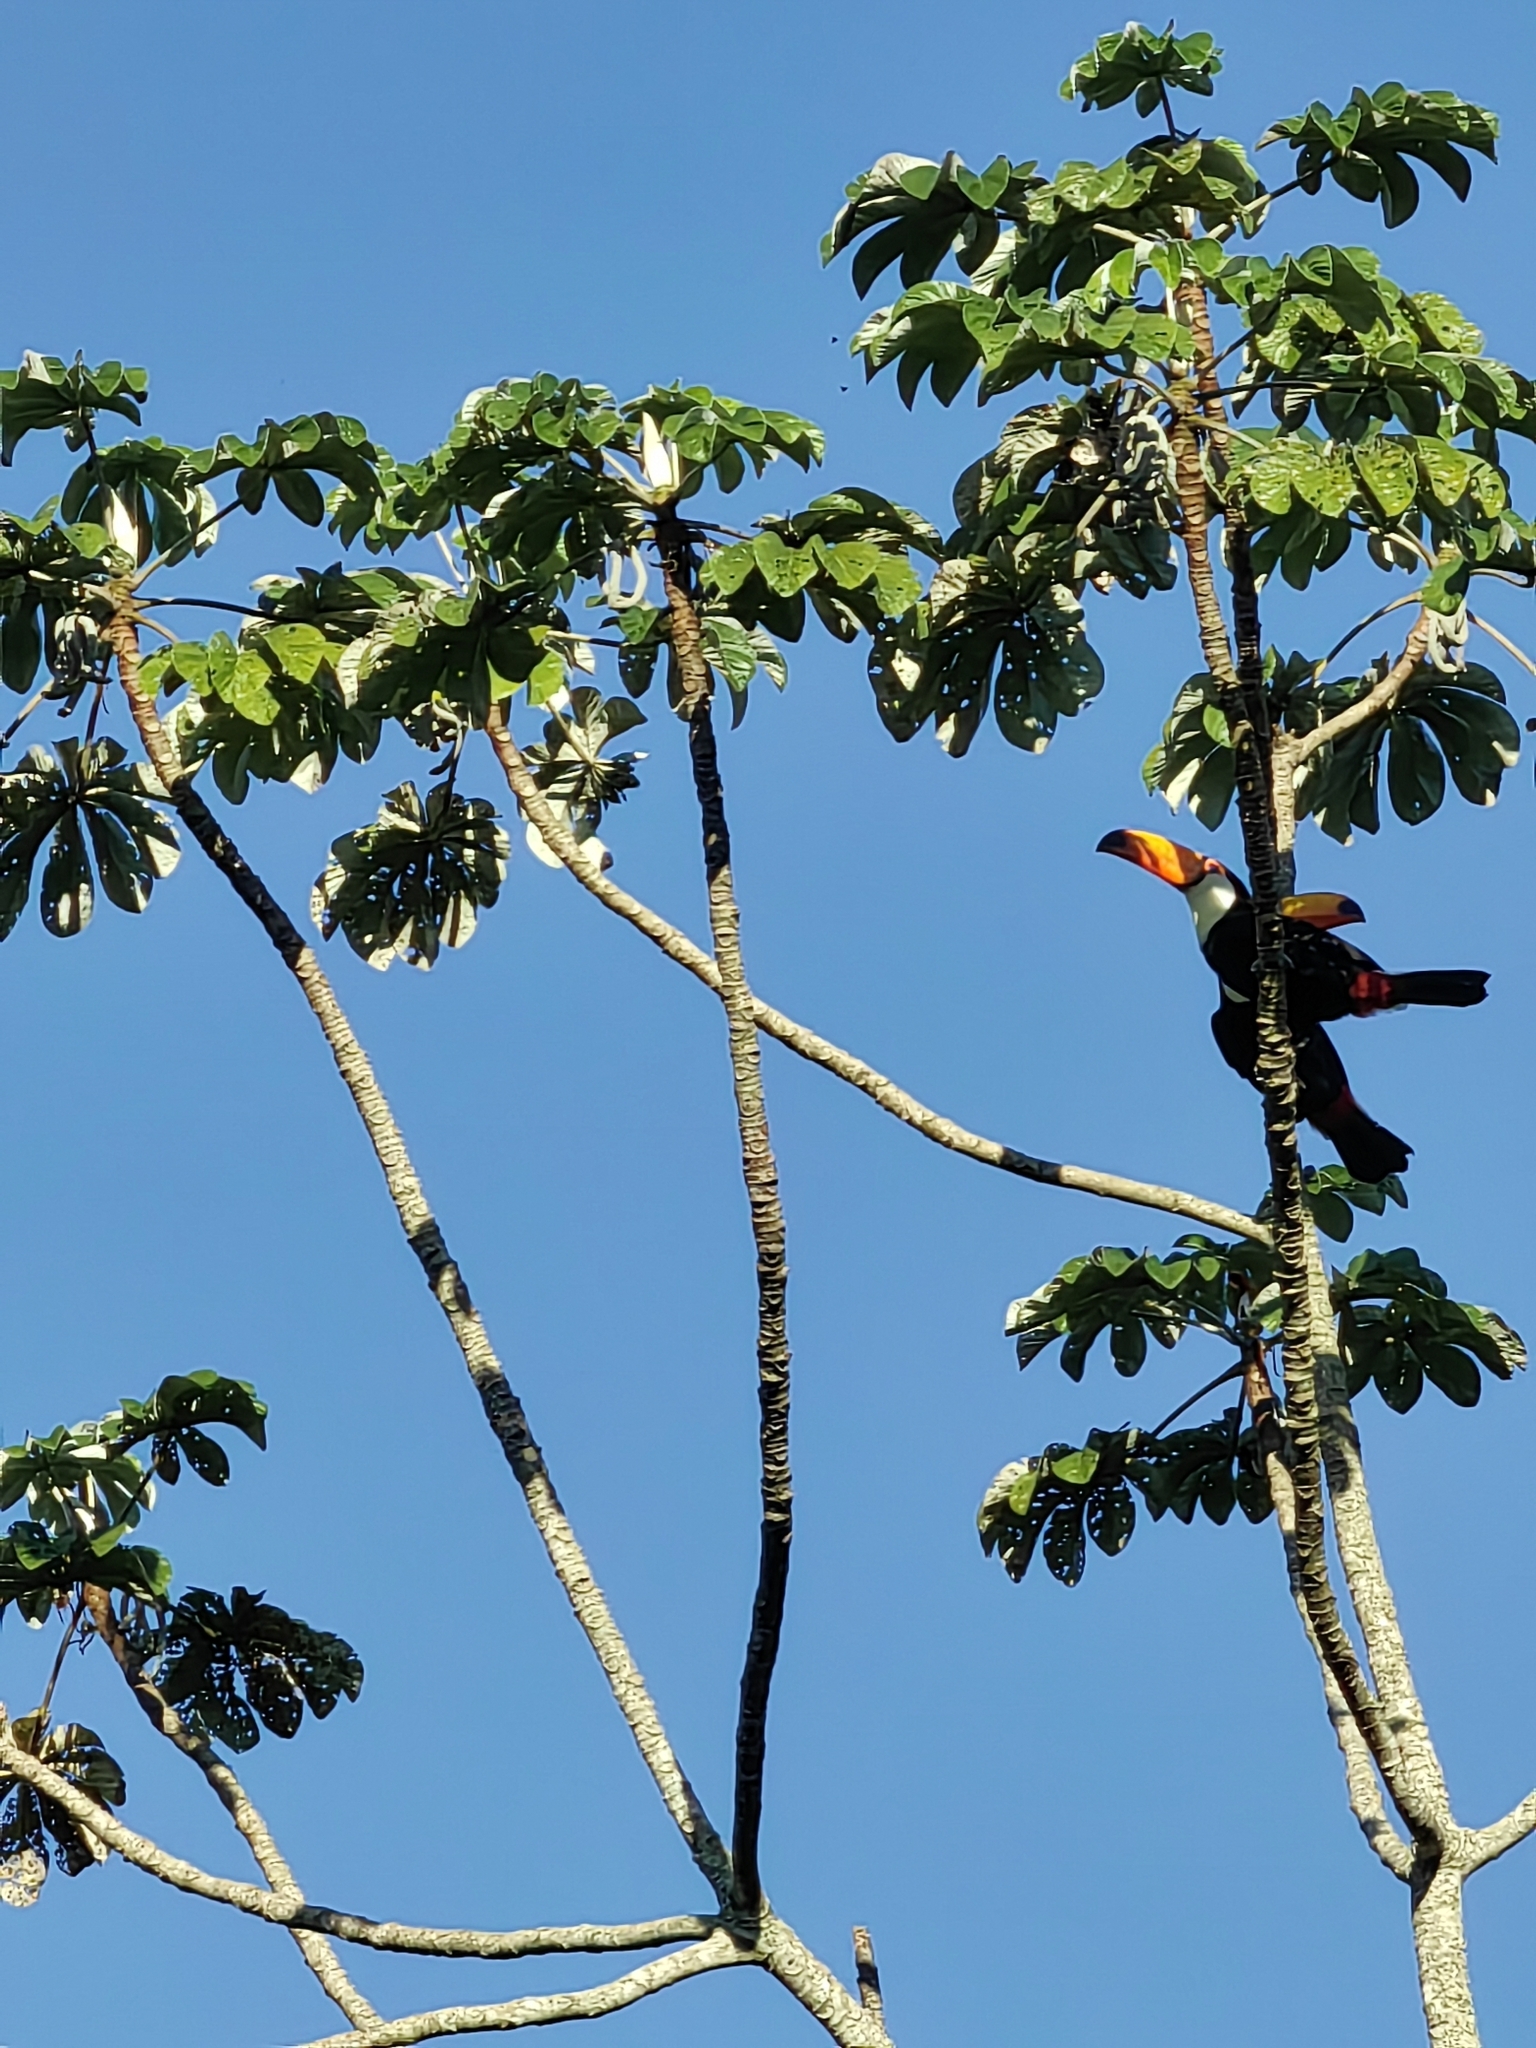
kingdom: Animalia
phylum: Chordata
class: Aves
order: Piciformes
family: Ramphastidae
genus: Ramphastos
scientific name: Ramphastos toco
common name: Toco toucan
